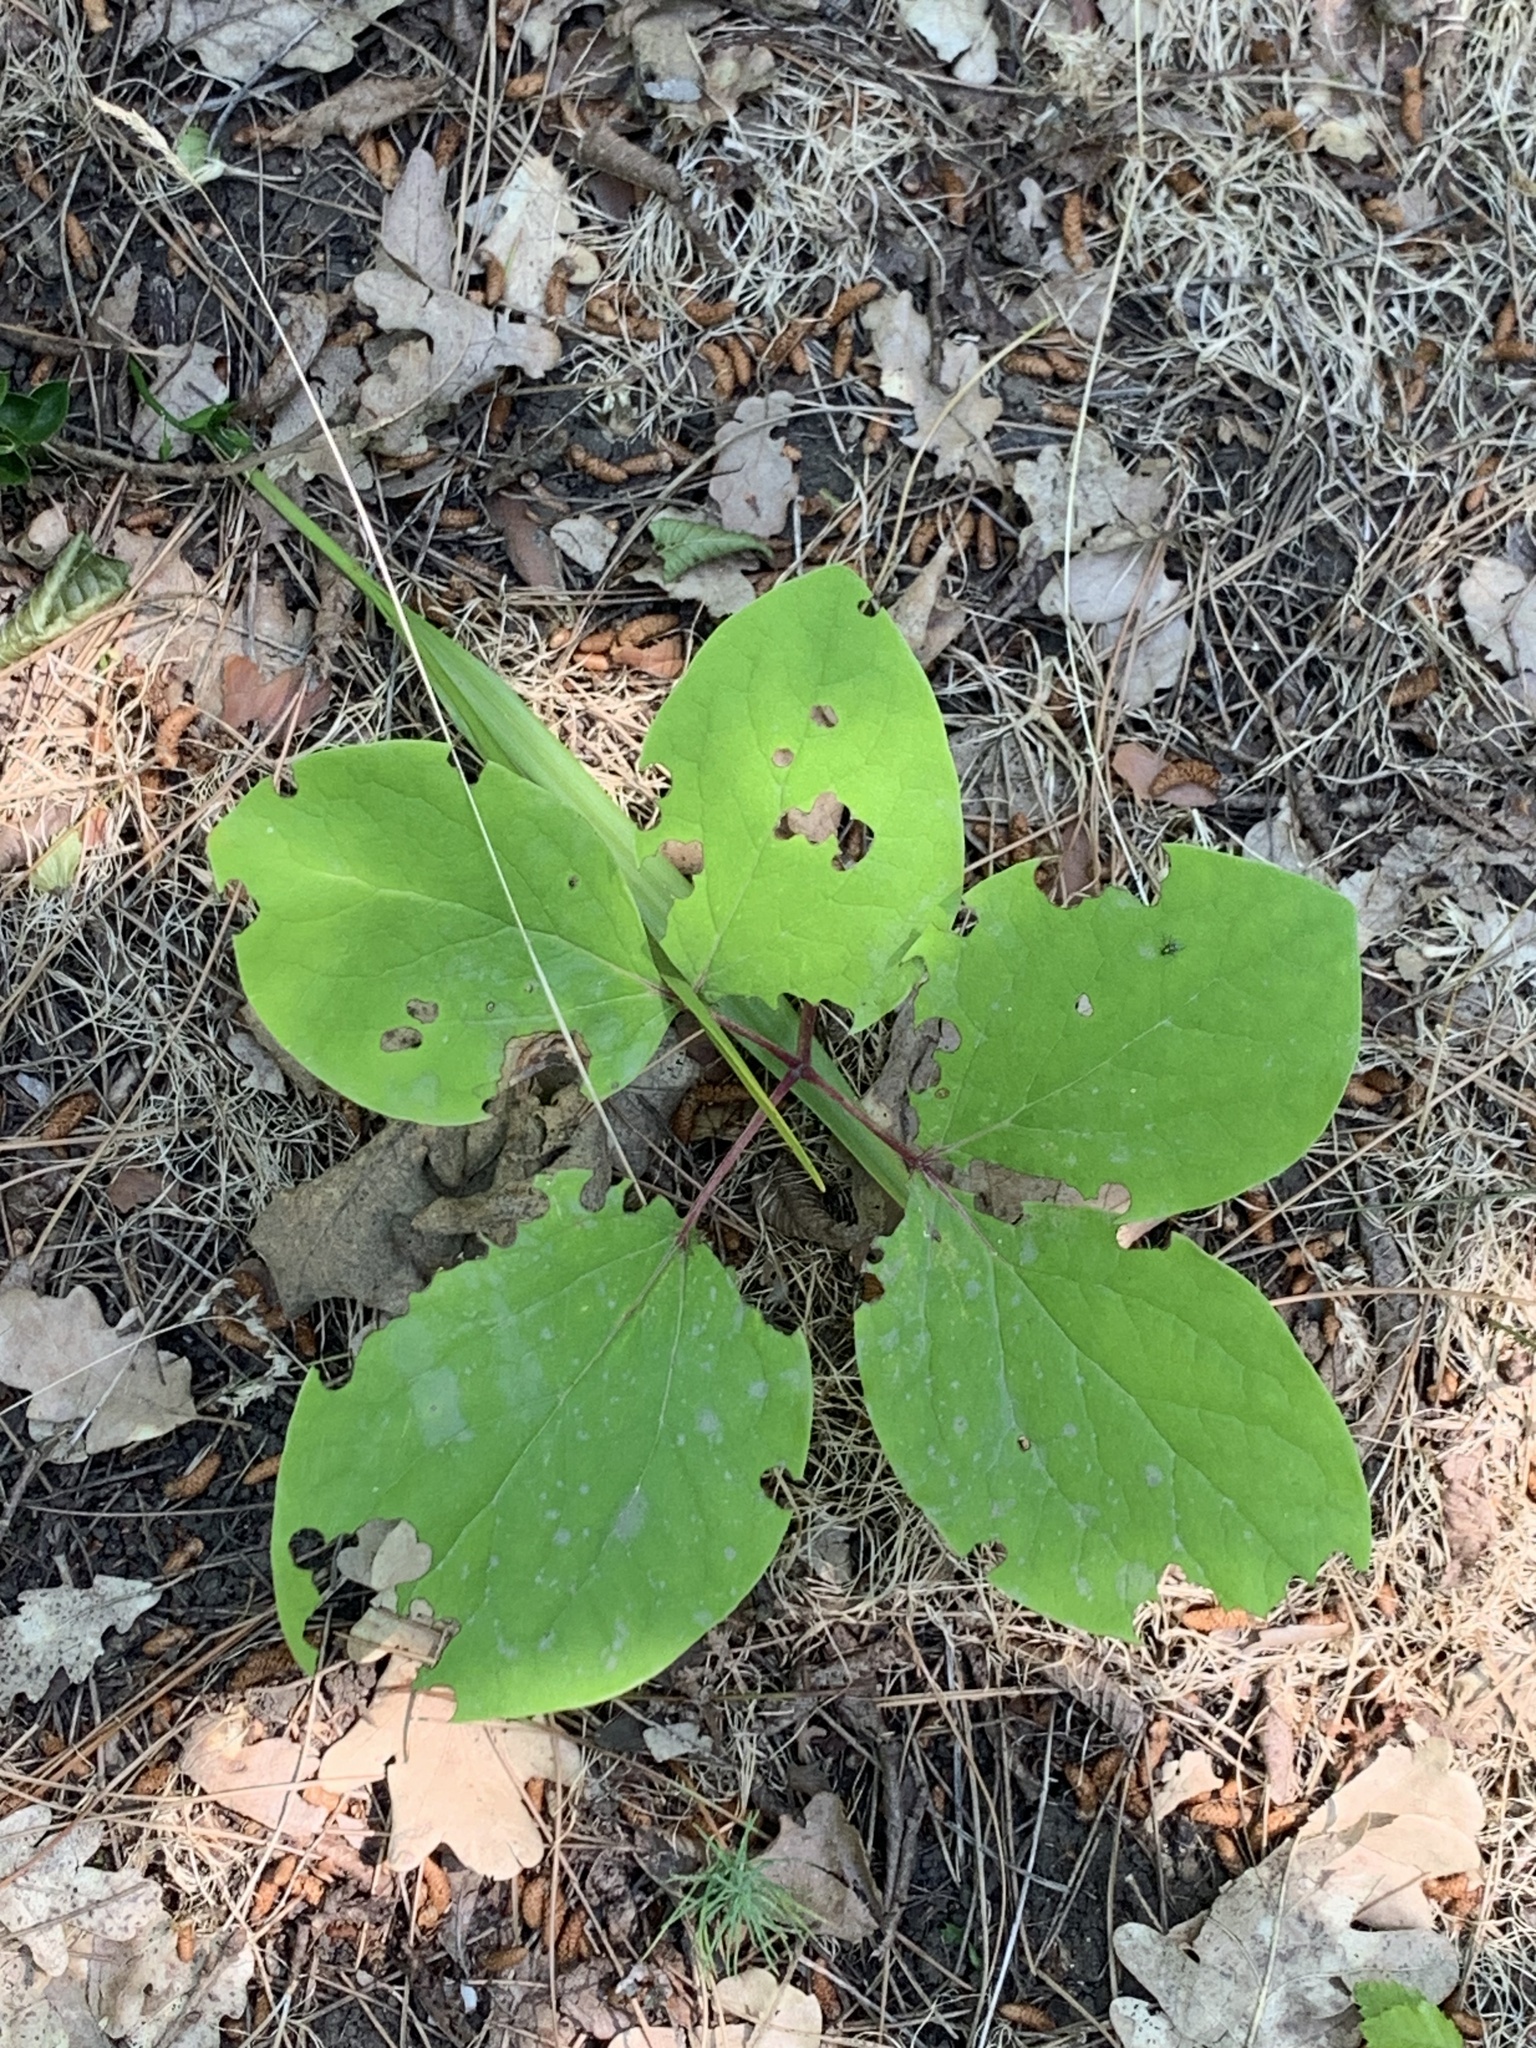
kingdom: Plantae
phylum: Tracheophyta
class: Magnoliopsida
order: Saxifragales
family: Paeoniaceae
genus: Paeonia
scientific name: Paeonia caucasica
